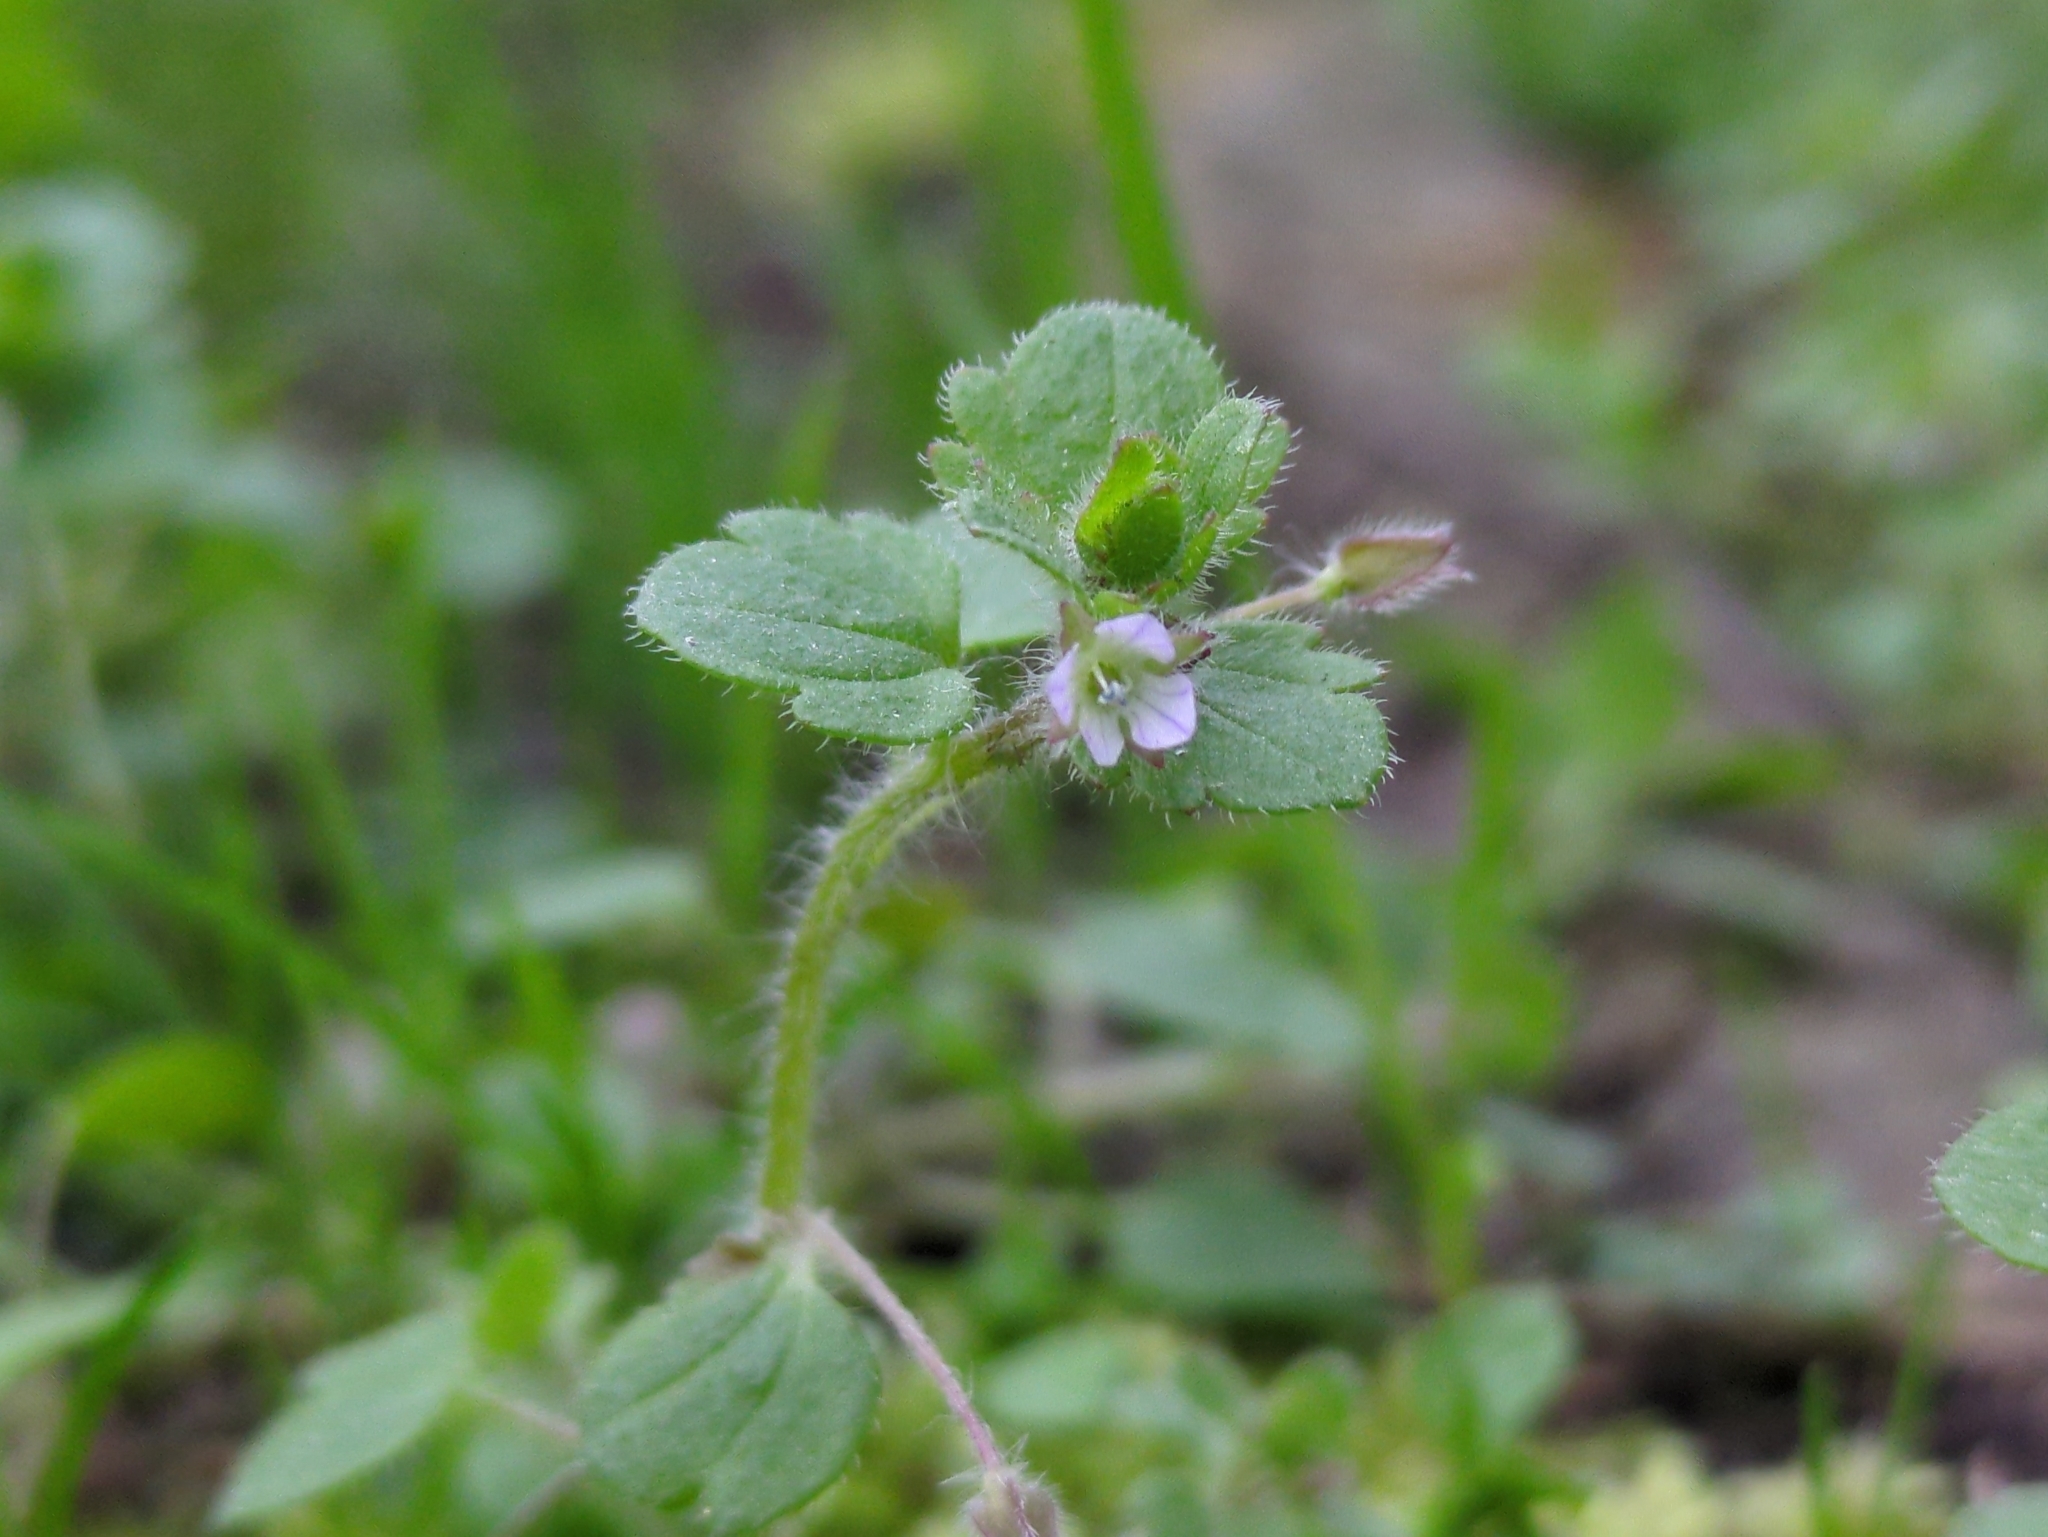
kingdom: Plantae
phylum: Tracheophyta
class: Magnoliopsida
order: Lamiales
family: Plantaginaceae
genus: Veronica
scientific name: Veronica sublobata
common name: False ivy-leaved speedwell
